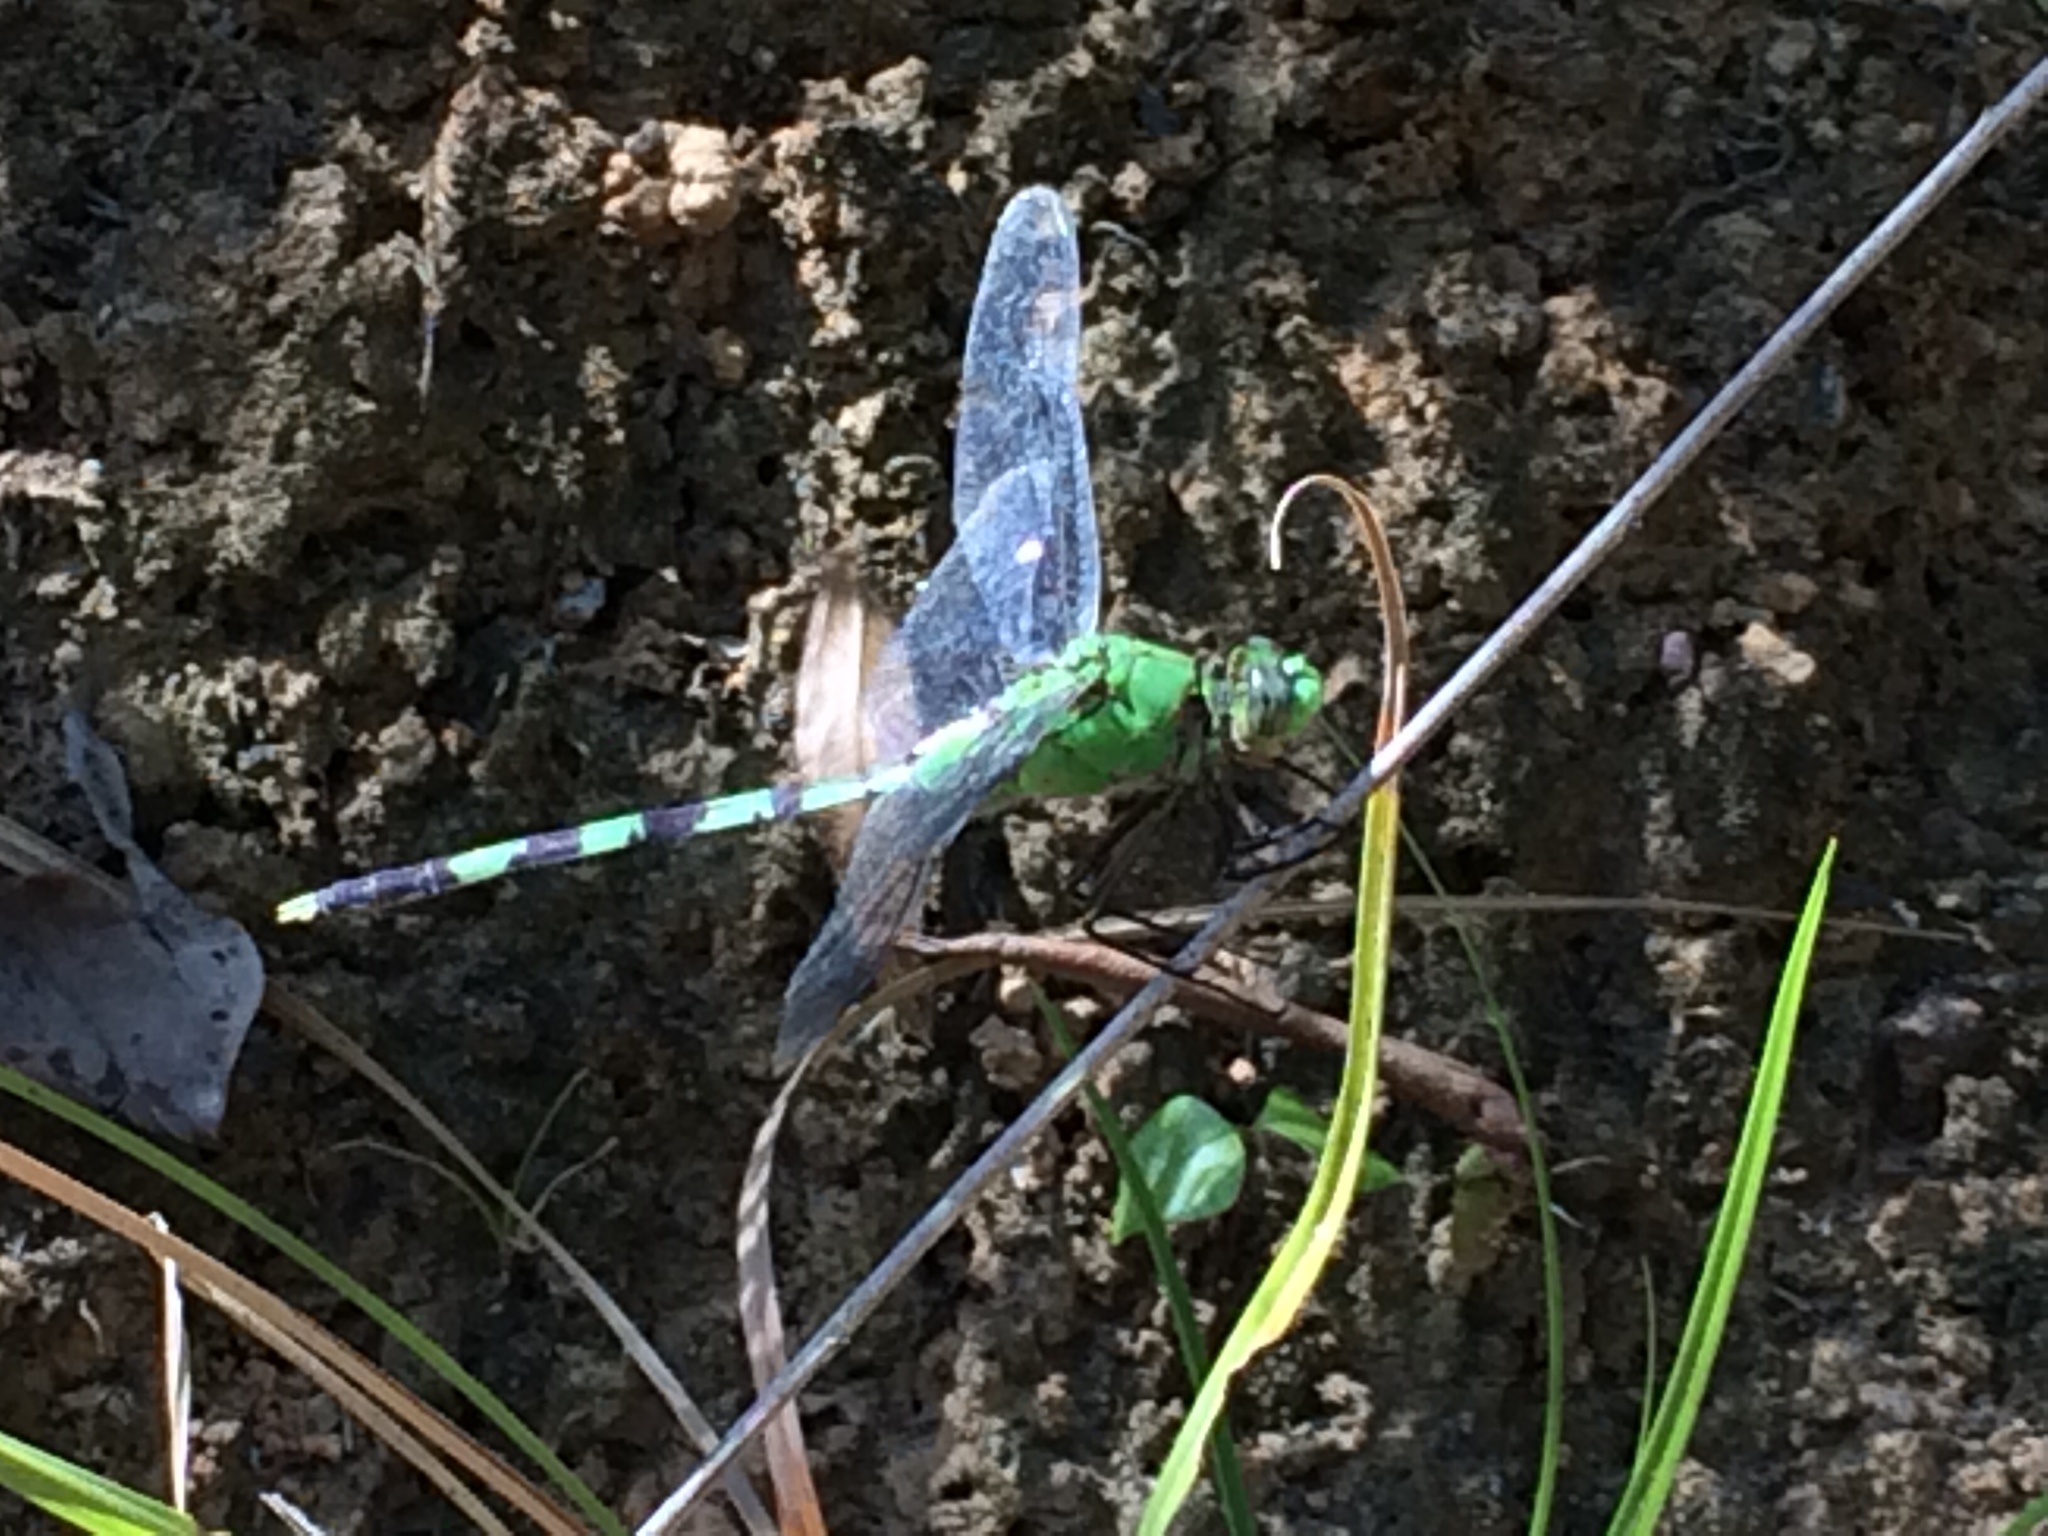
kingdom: Animalia
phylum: Arthropoda
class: Insecta
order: Odonata
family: Libellulidae
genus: Erythemis
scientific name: Erythemis vesiculosa
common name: Great pondhawk
